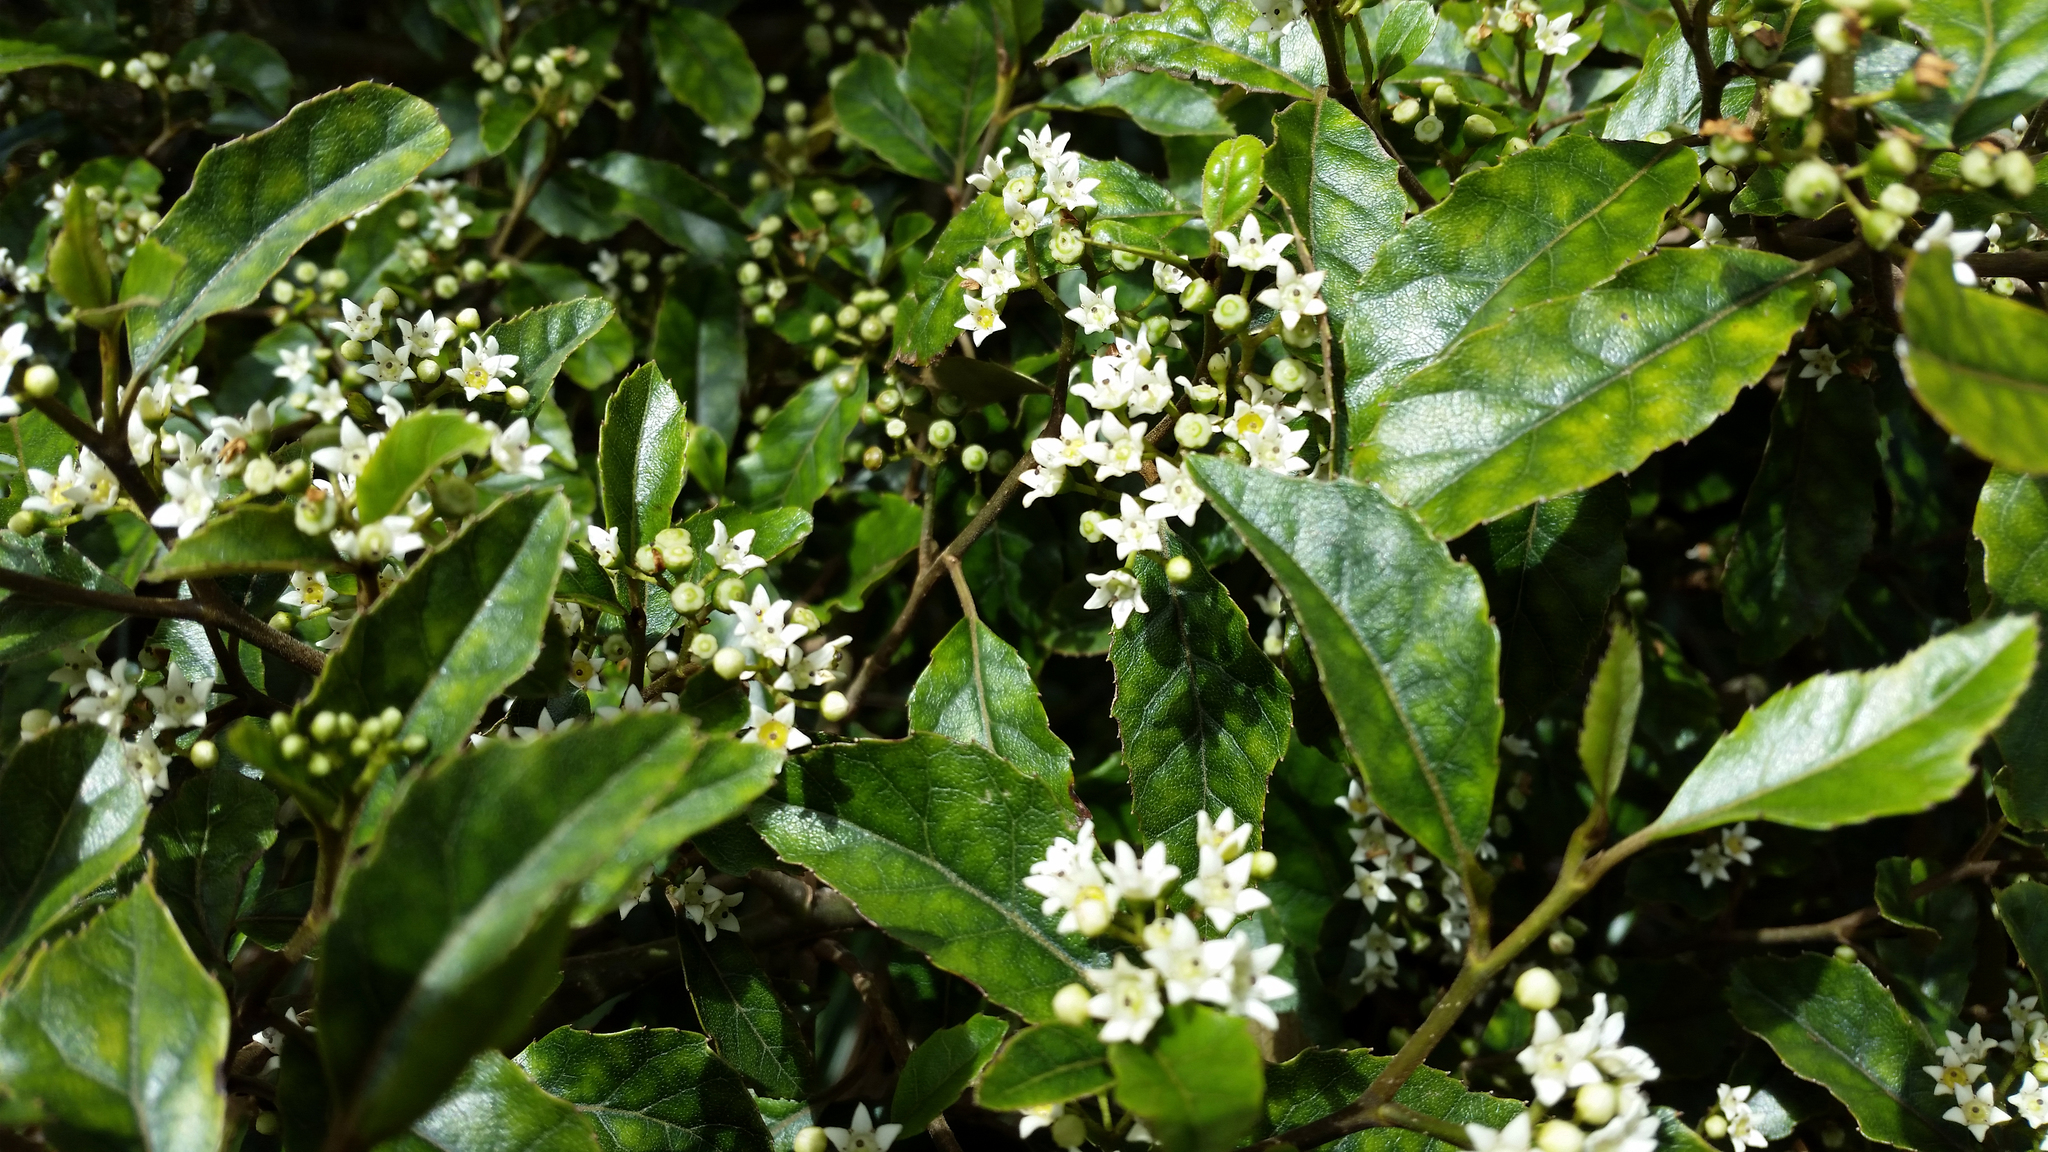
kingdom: Plantae
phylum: Tracheophyta
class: Magnoliopsida
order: Asterales
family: Rousseaceae
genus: Carpodetus
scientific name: Carpodetus serratus
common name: White mapau
